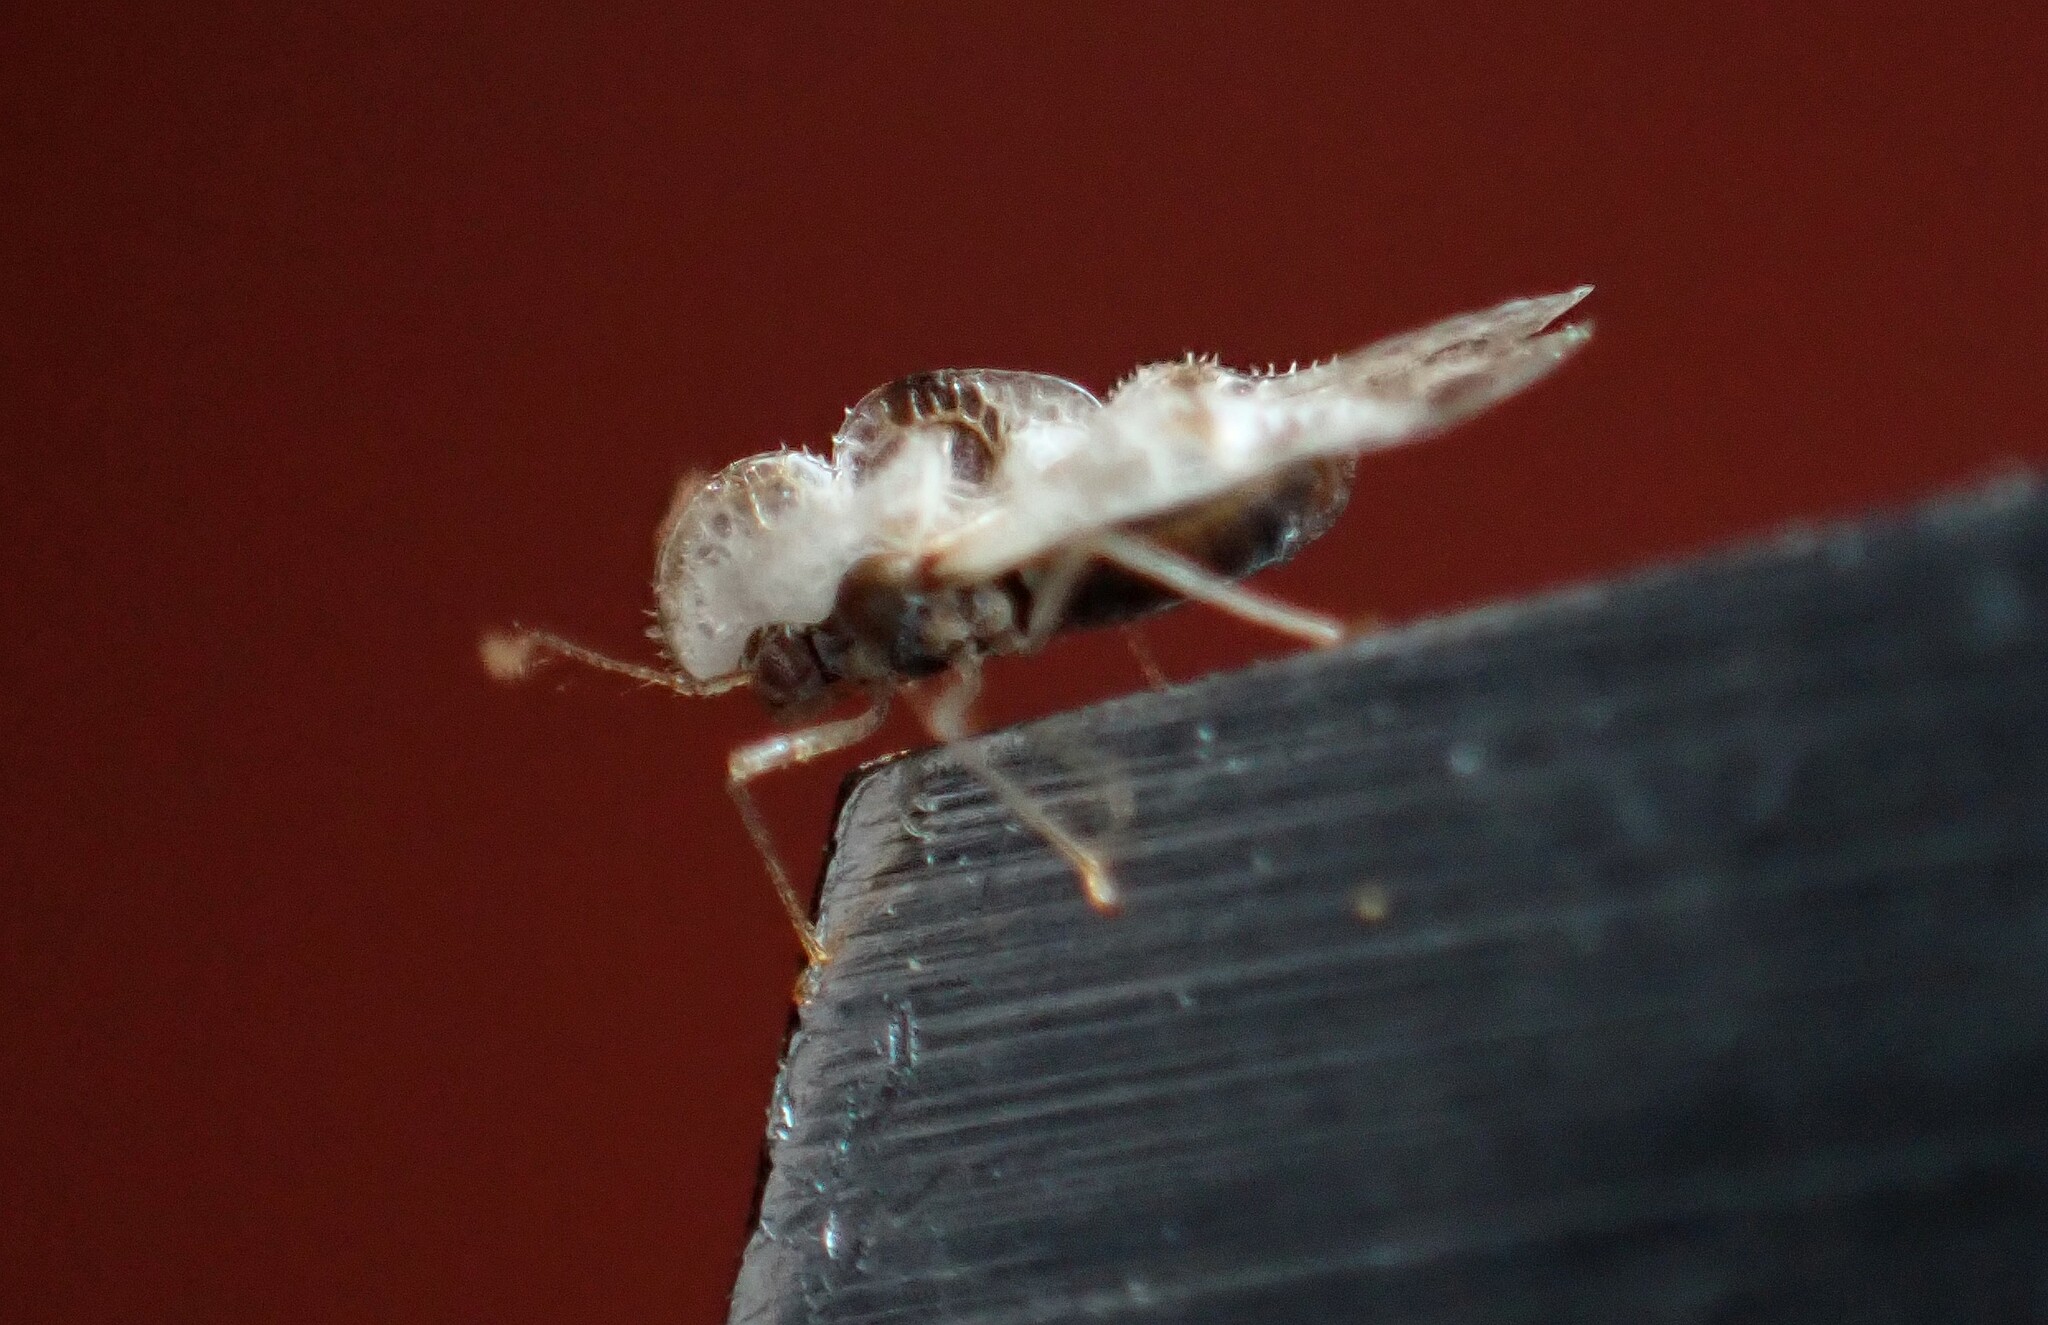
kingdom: Animalia
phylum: Arthropoda
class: Insecta
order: Hemiptera
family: Tingidae
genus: Corythucha
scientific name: Corythucha gossypii
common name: Cotton lace bug
